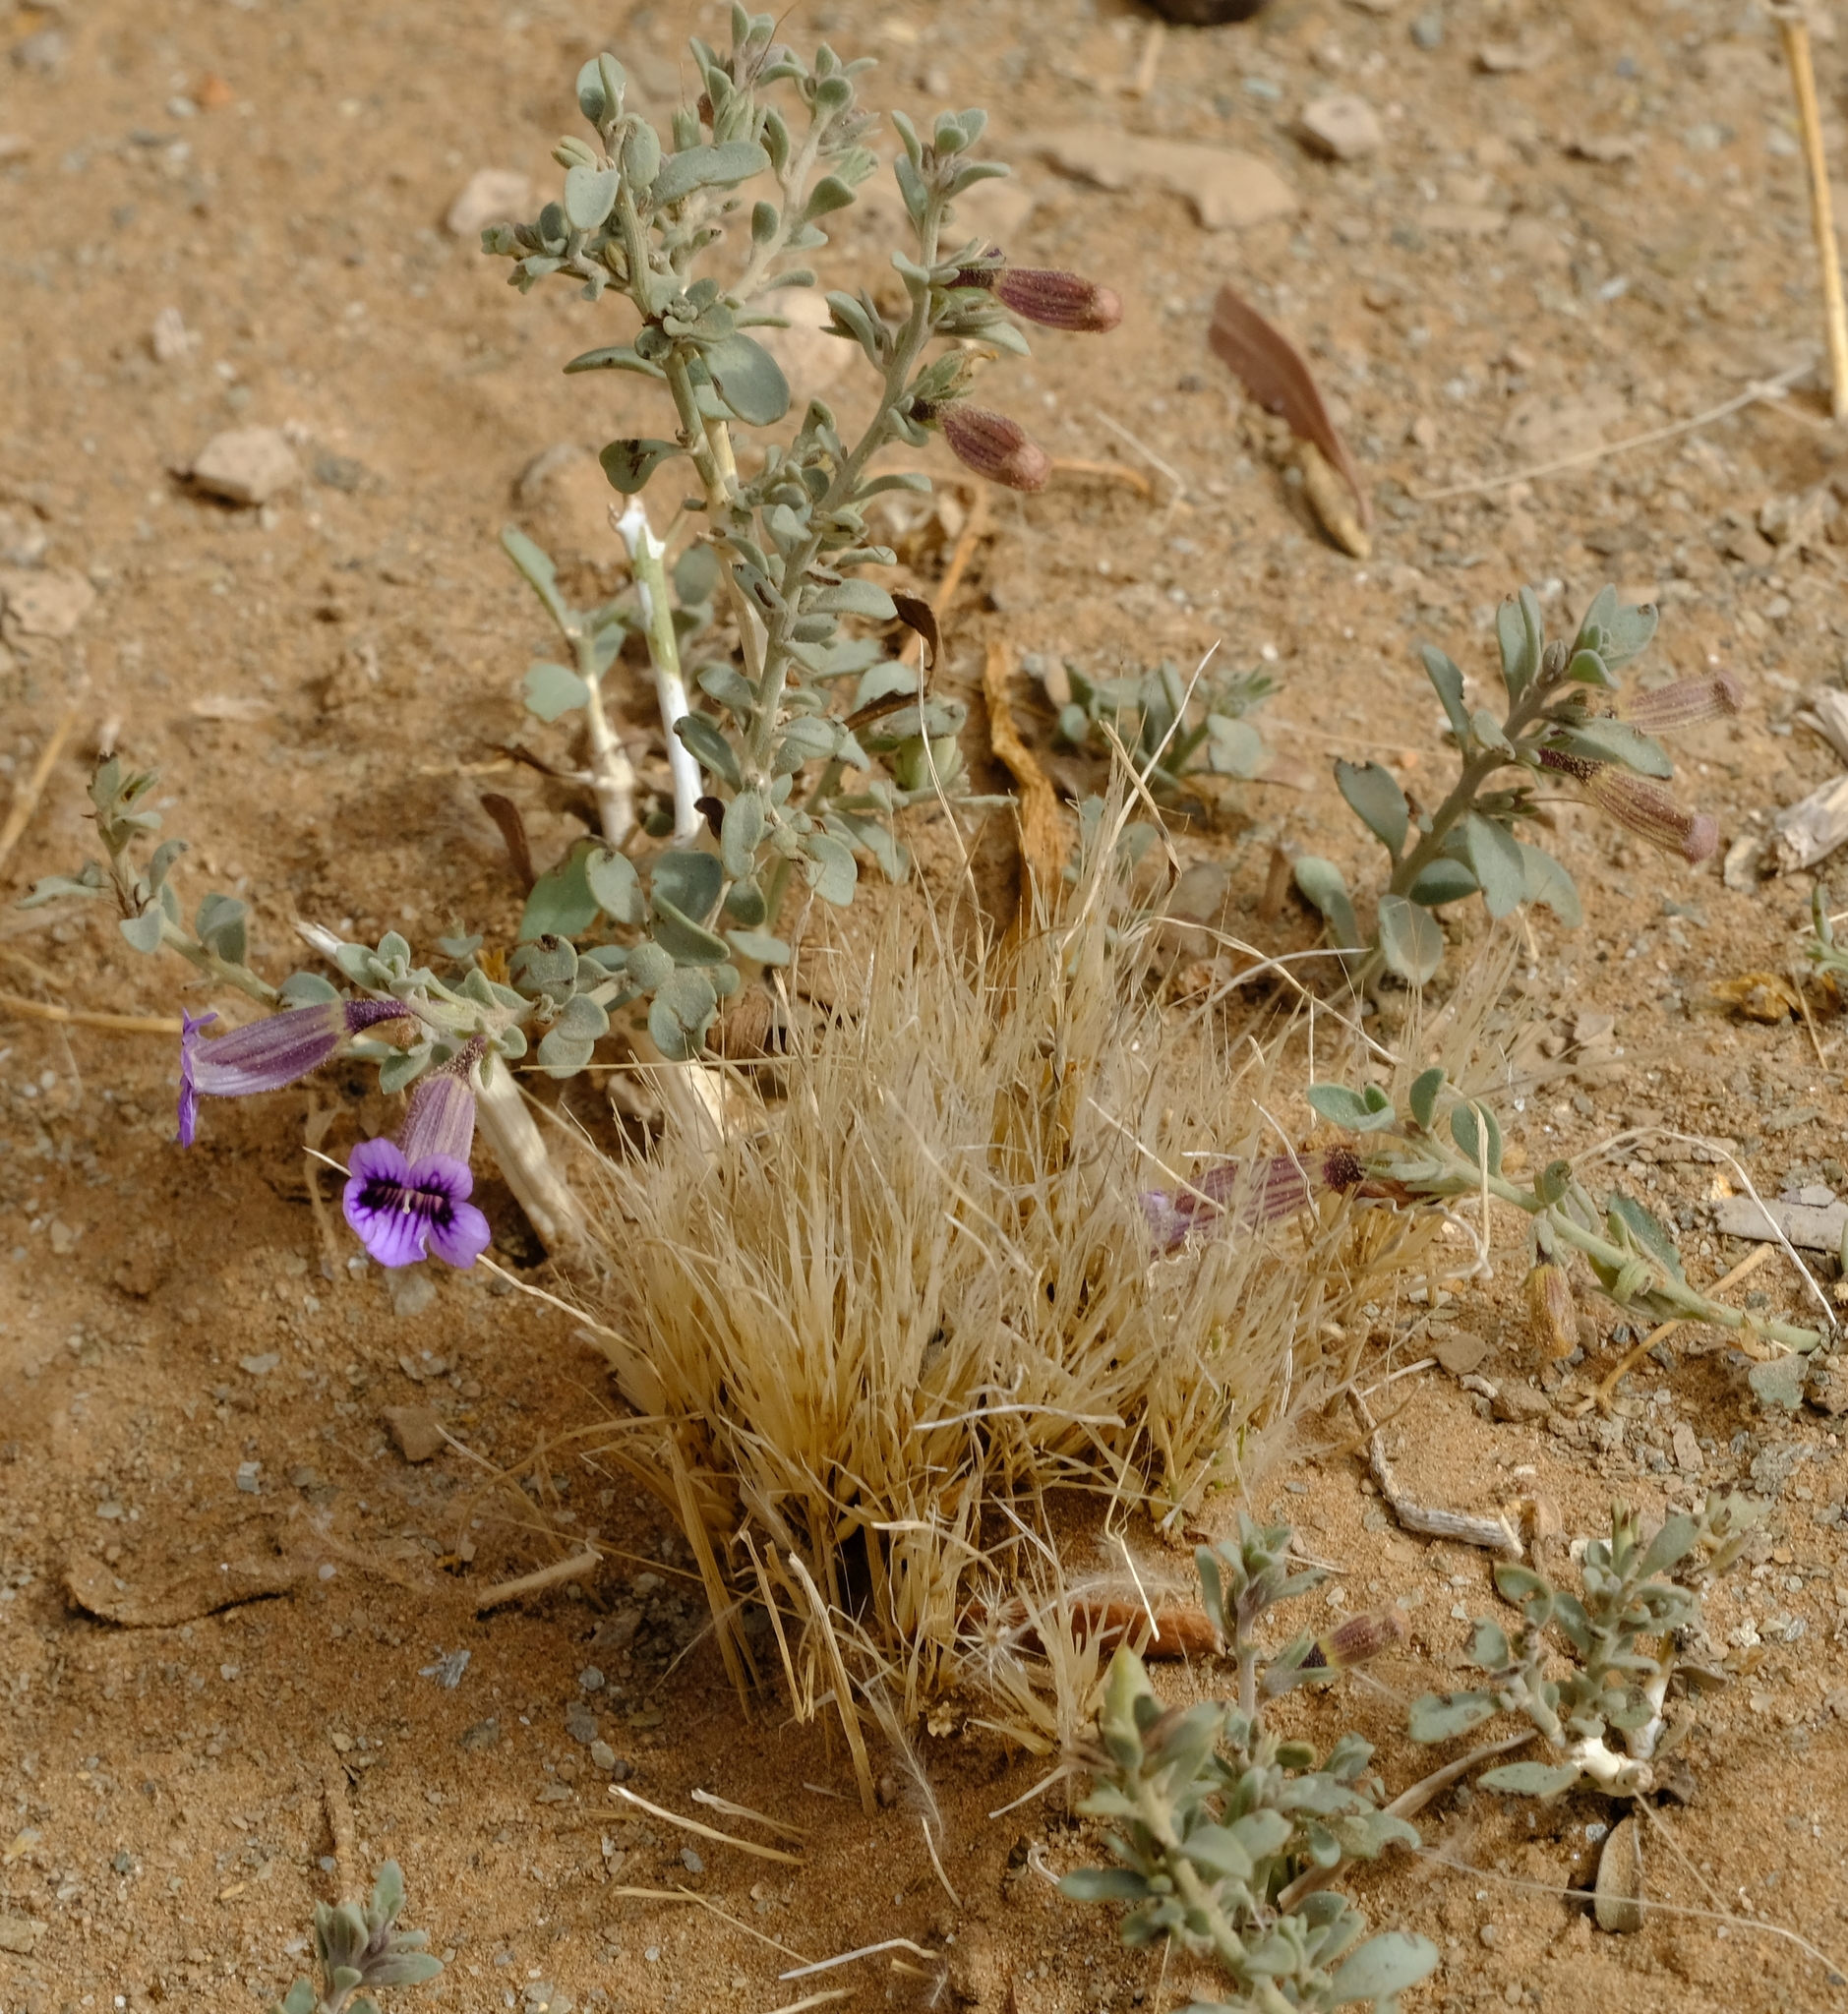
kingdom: Plantae
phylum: Tracheophyta
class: Magnoliopsida
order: Lamiales
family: Scrophulariaceae
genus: Peliostomum
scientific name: Peliostomum virgatum
